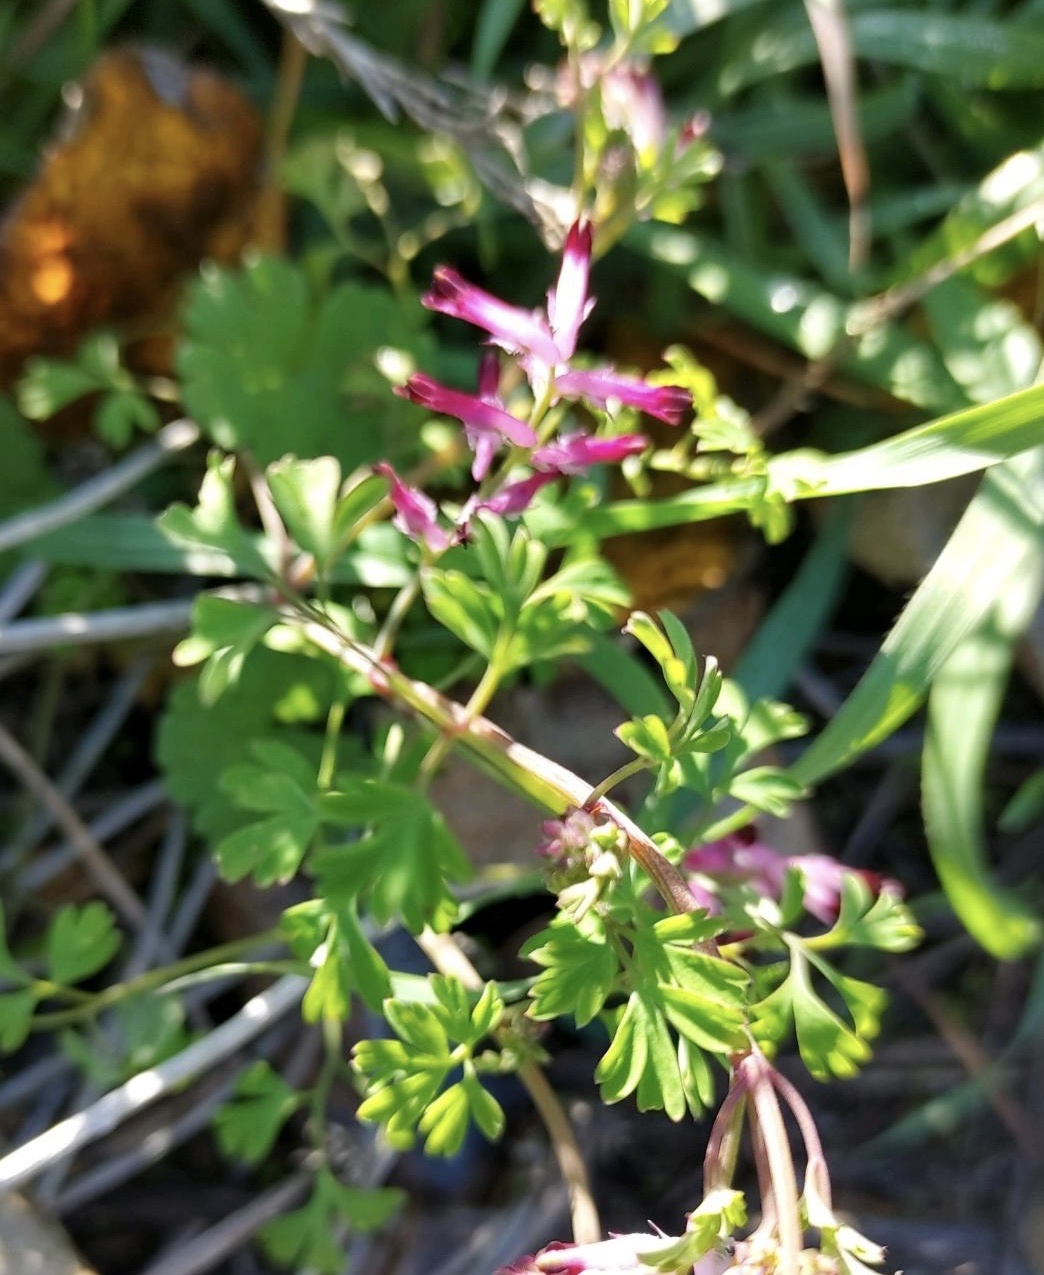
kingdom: Plantae
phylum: Tracheophyta
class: Magnoliopsida
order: Ranunculales
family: Papaveraceae
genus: Fumaria
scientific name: Fumaria muralis
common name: Common ramping-fumitory
